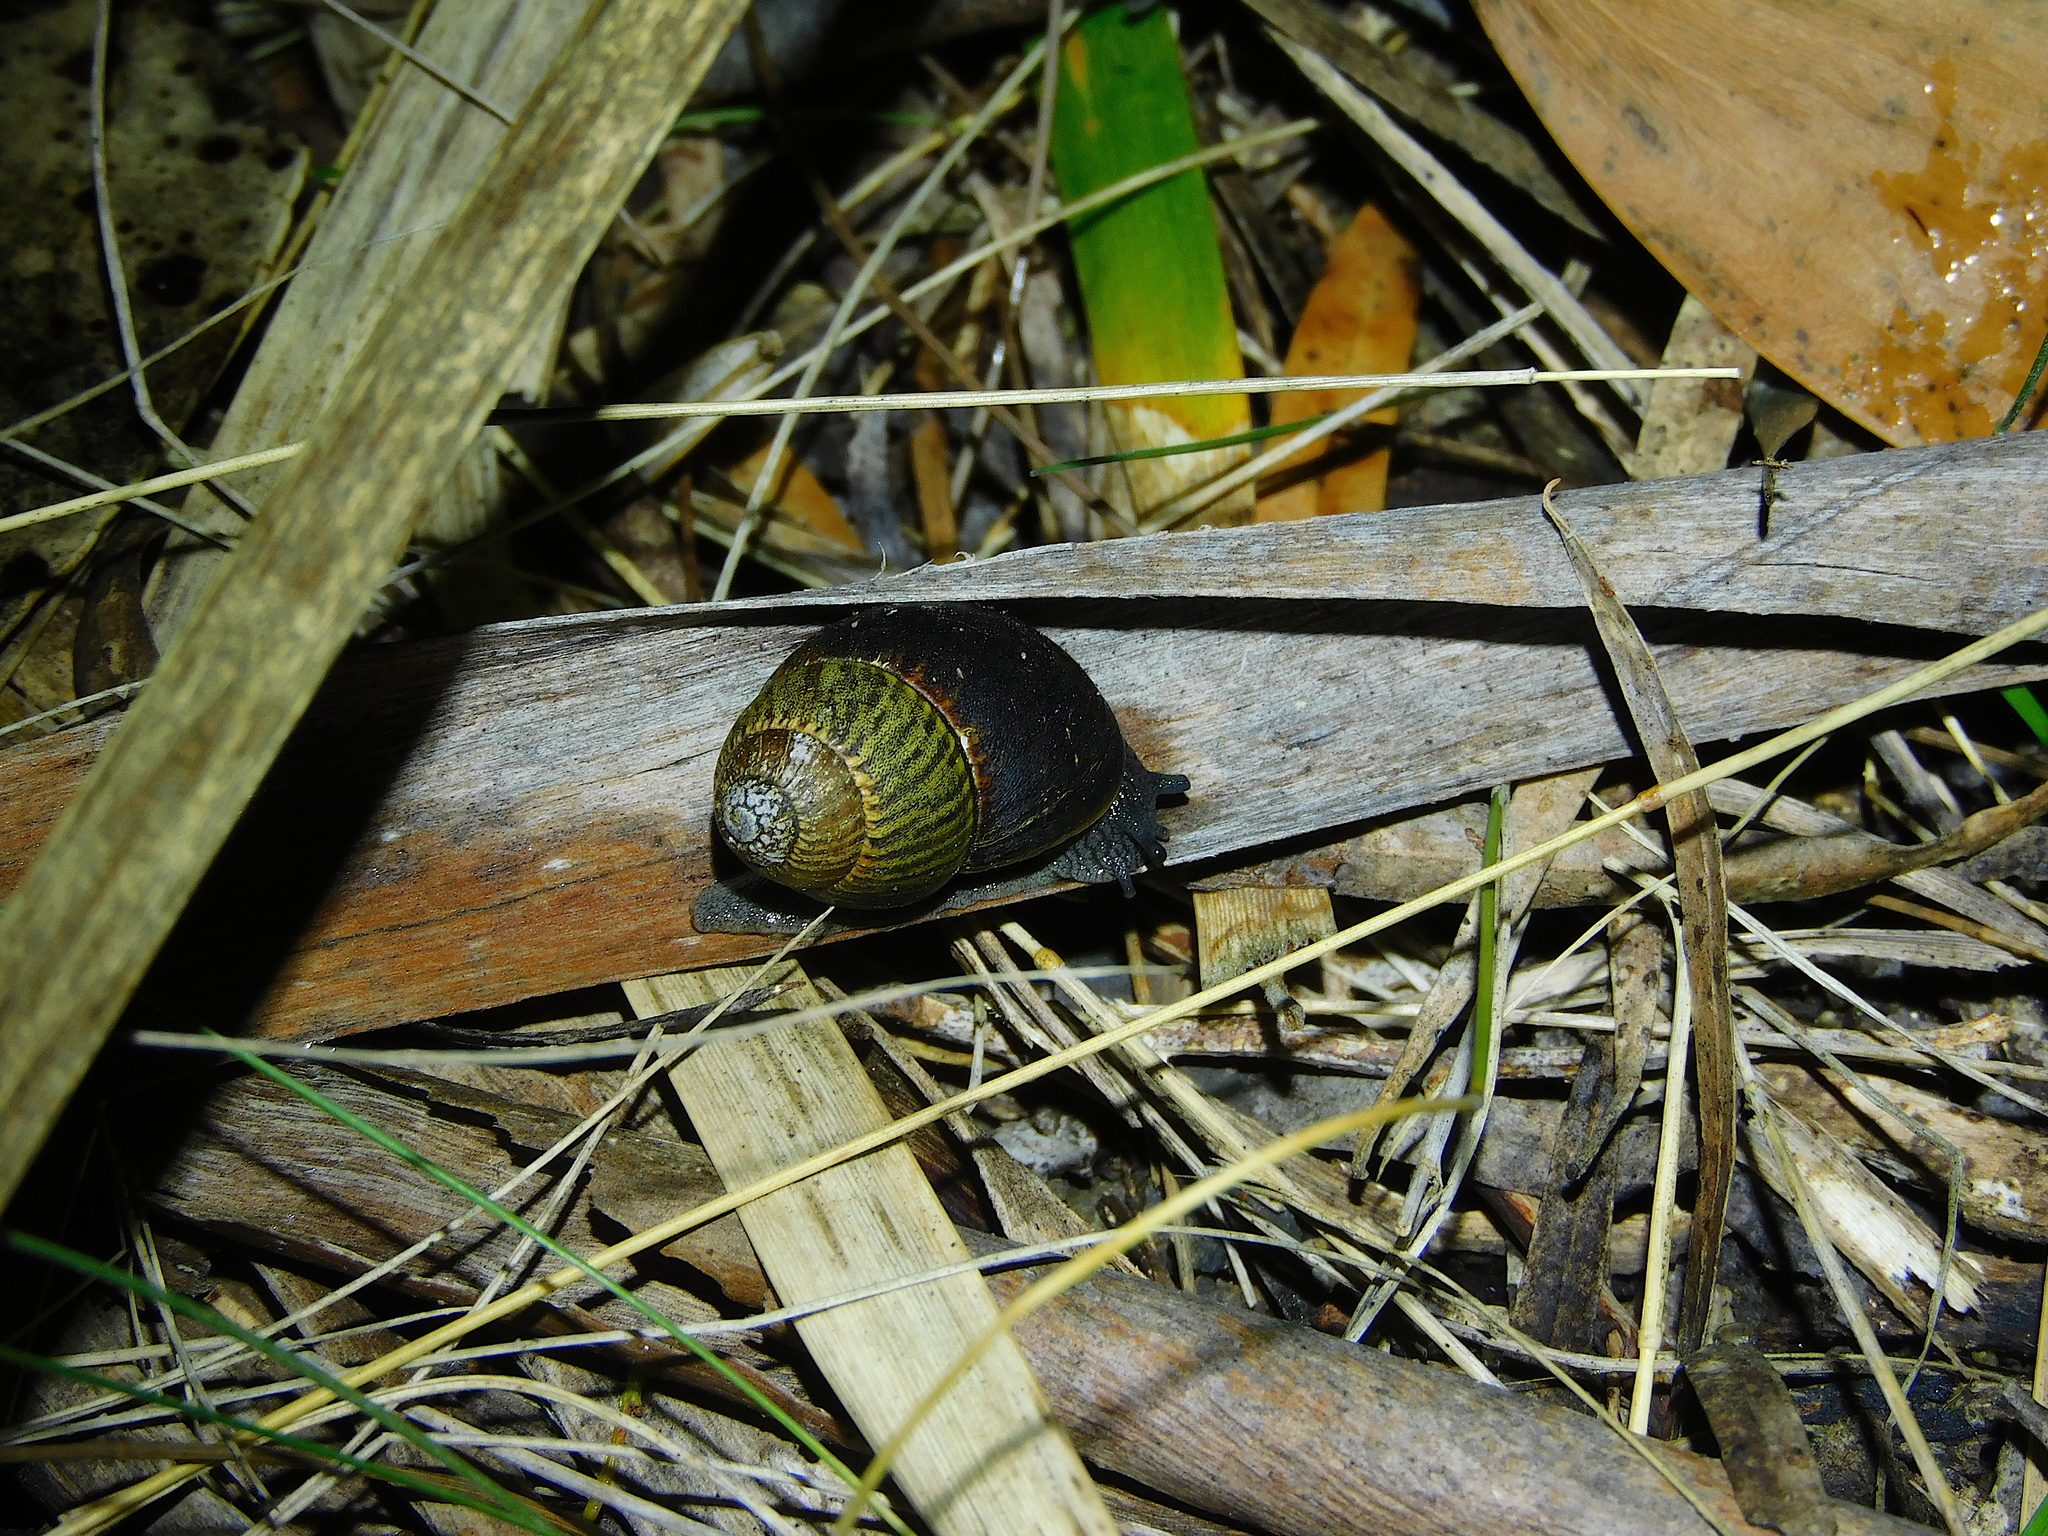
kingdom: Animalia
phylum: Mollusca
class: Gastropoda
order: Stylommatophora
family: Caryodidae
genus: Caryodes
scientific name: Caryodes dufresnii
